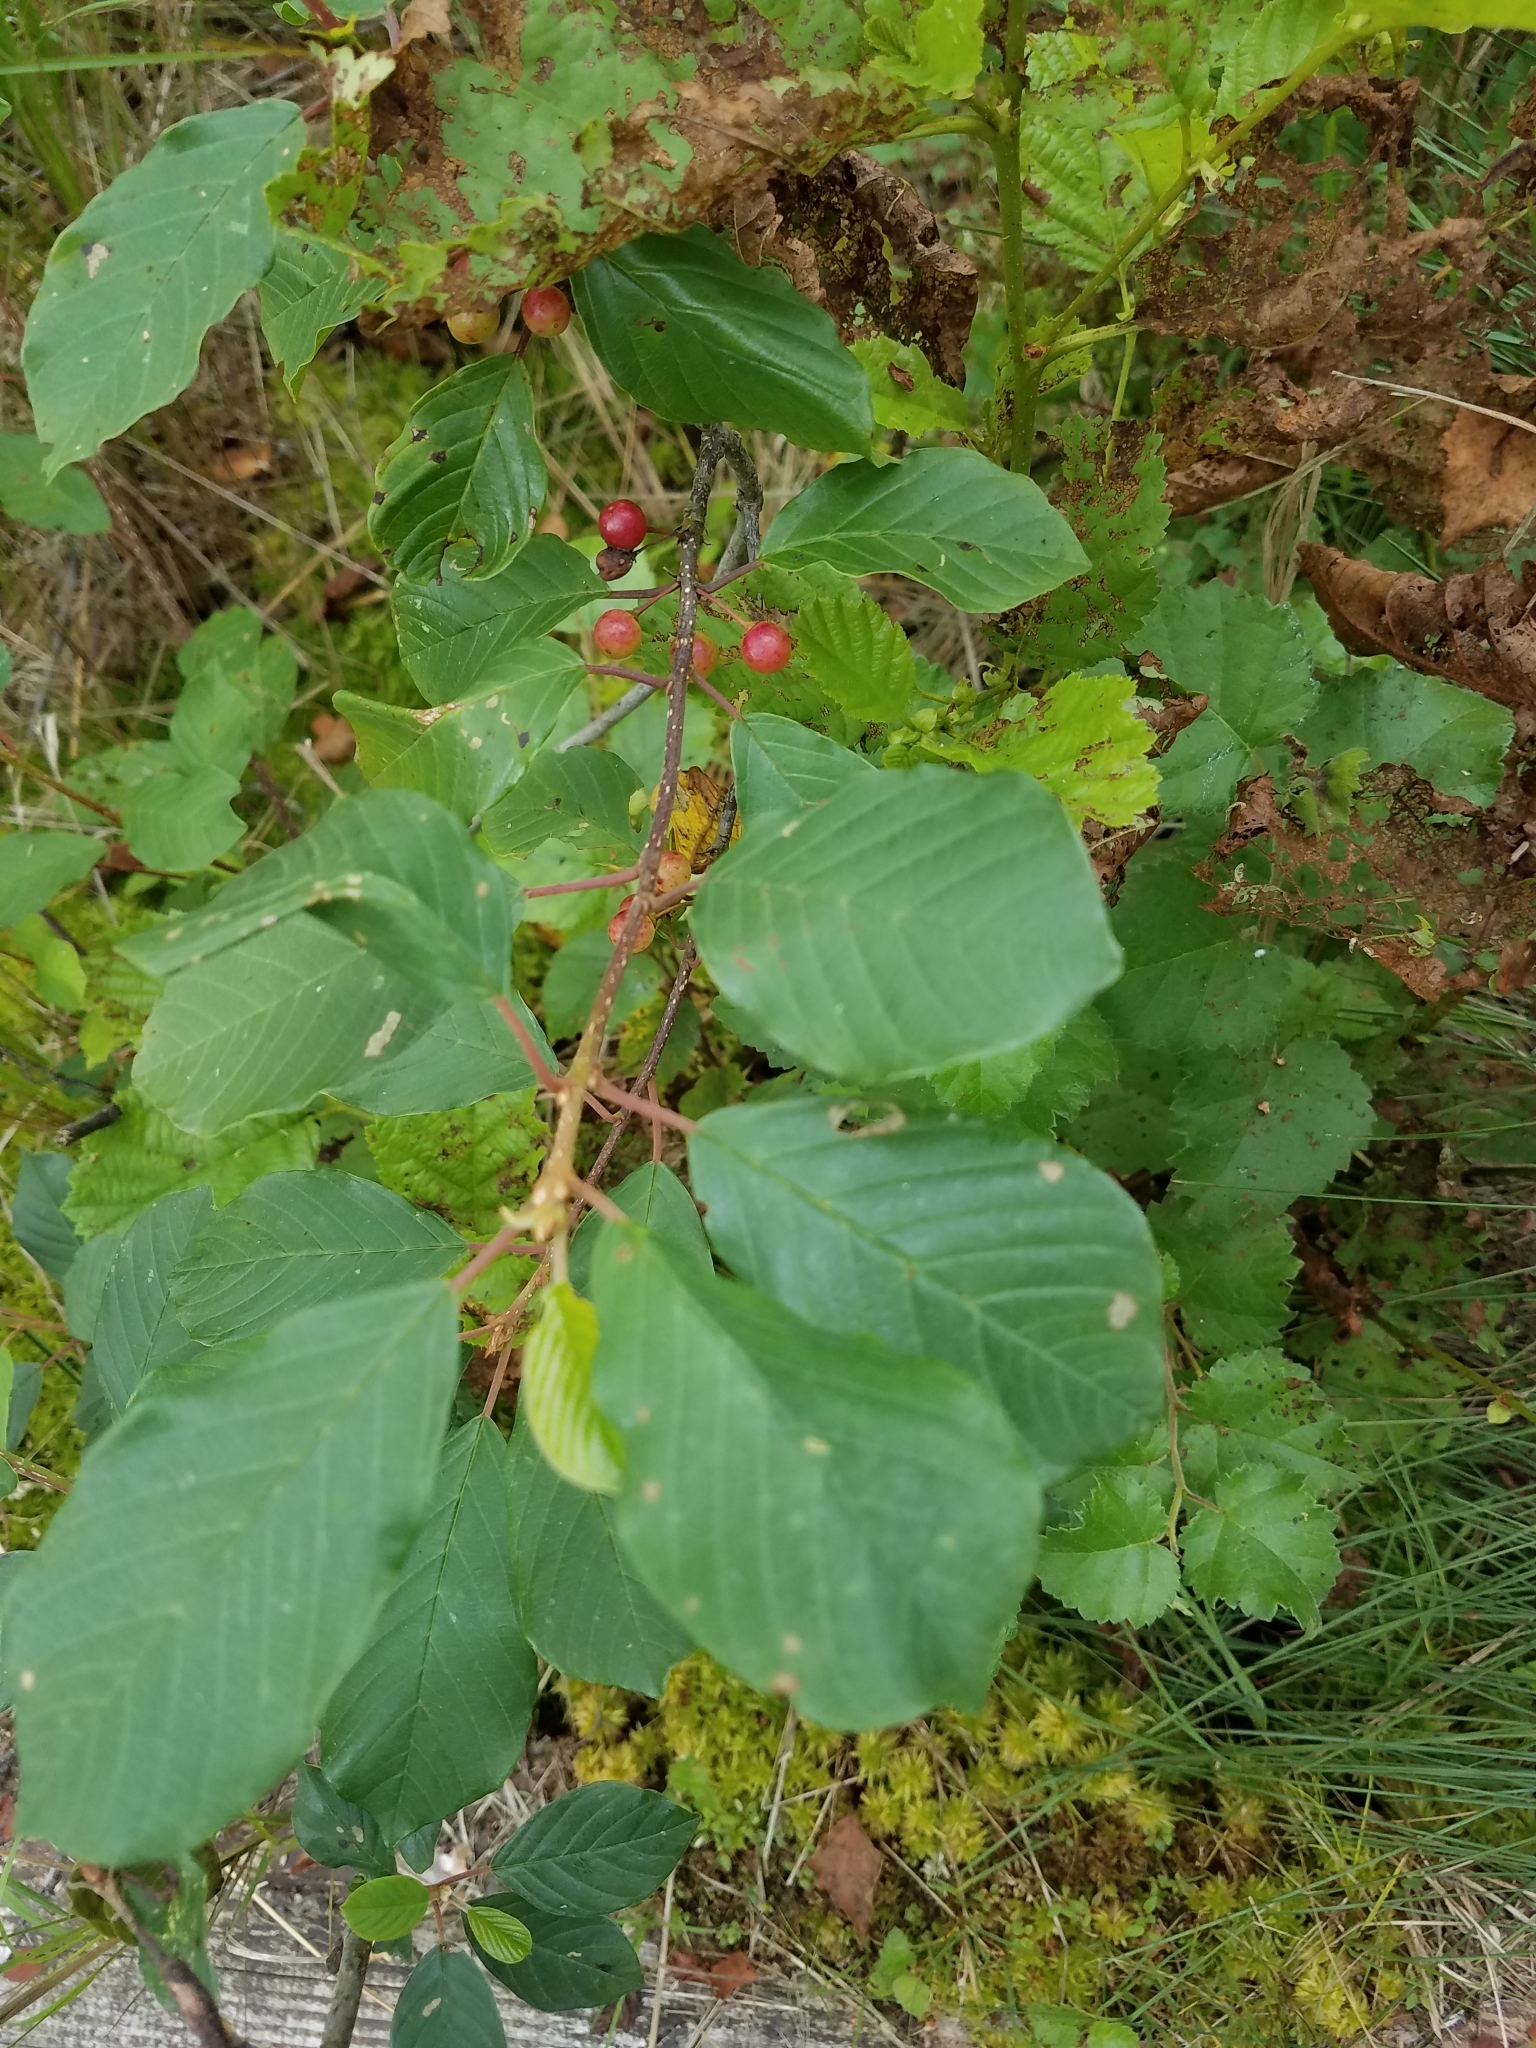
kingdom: Plantae
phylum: Tracheophyta
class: Magnoliopsida
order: Rosales
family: Rhamnaceae
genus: Frangula
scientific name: Frangula alnus
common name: Alder buckthorn
